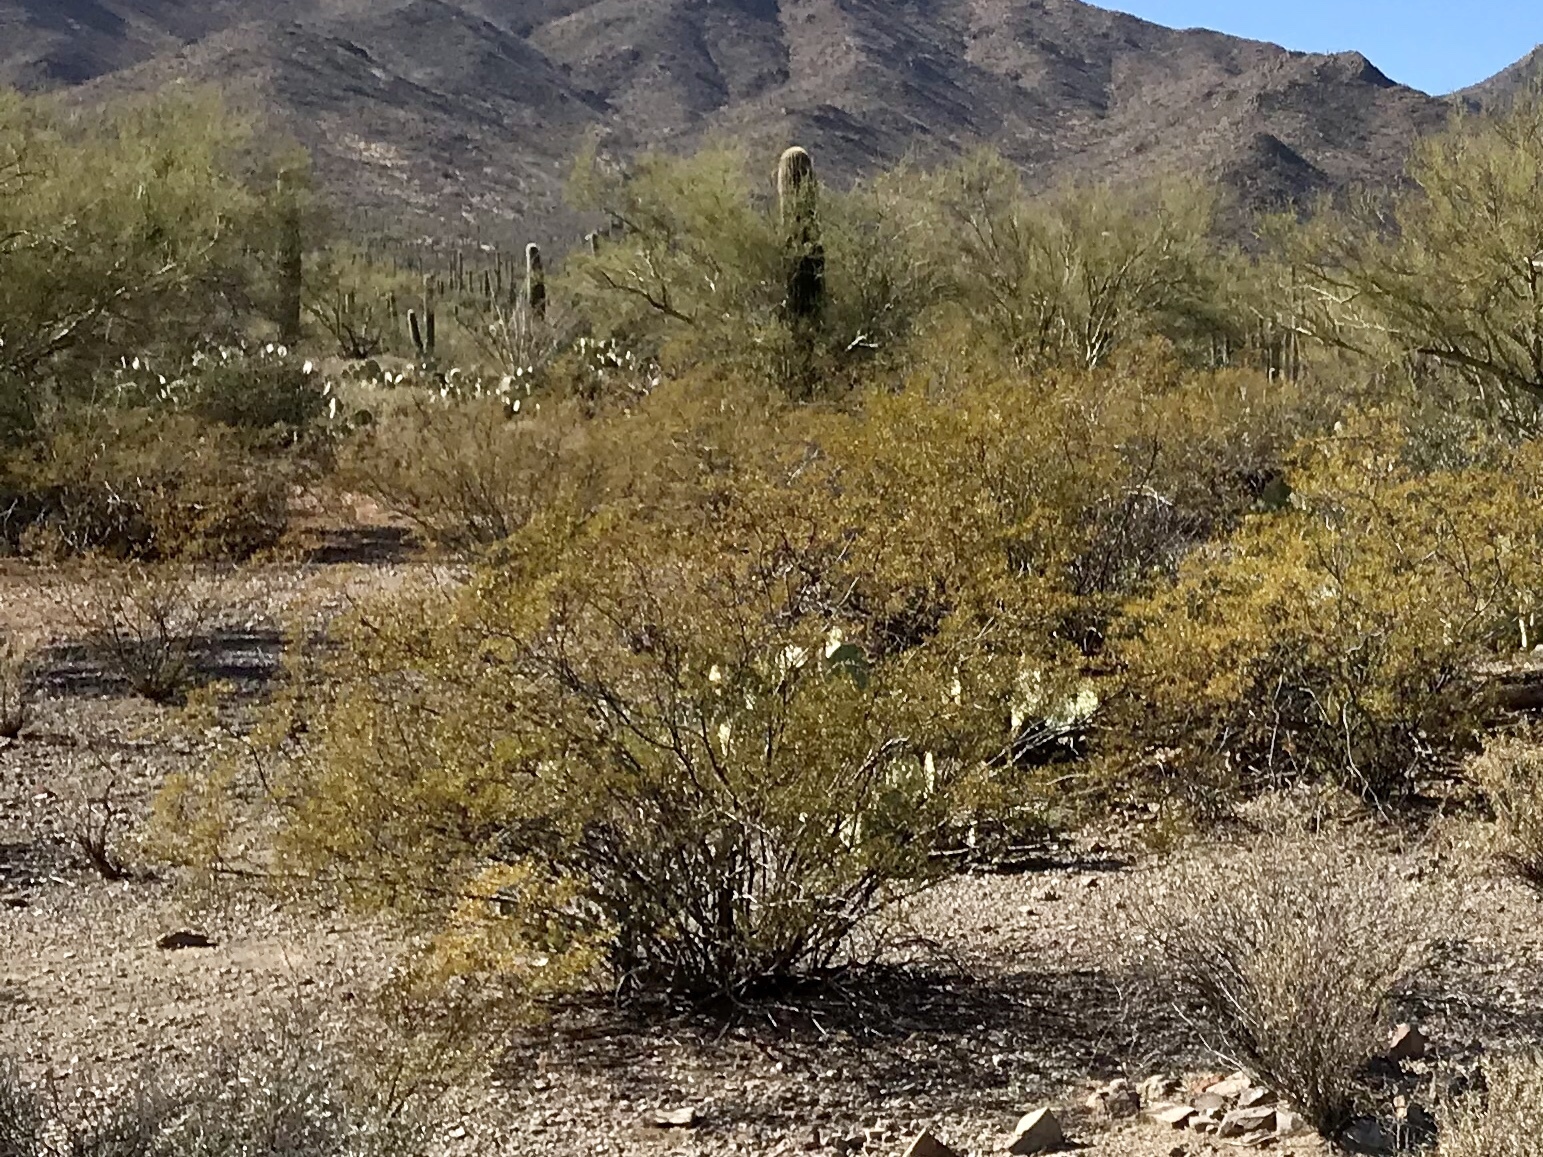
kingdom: Plantae
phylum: Tracheophyta
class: Magnoliopsida
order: Zygophyllales
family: Zygophyllaceae
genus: Larrea
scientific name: Larrea tridentata
